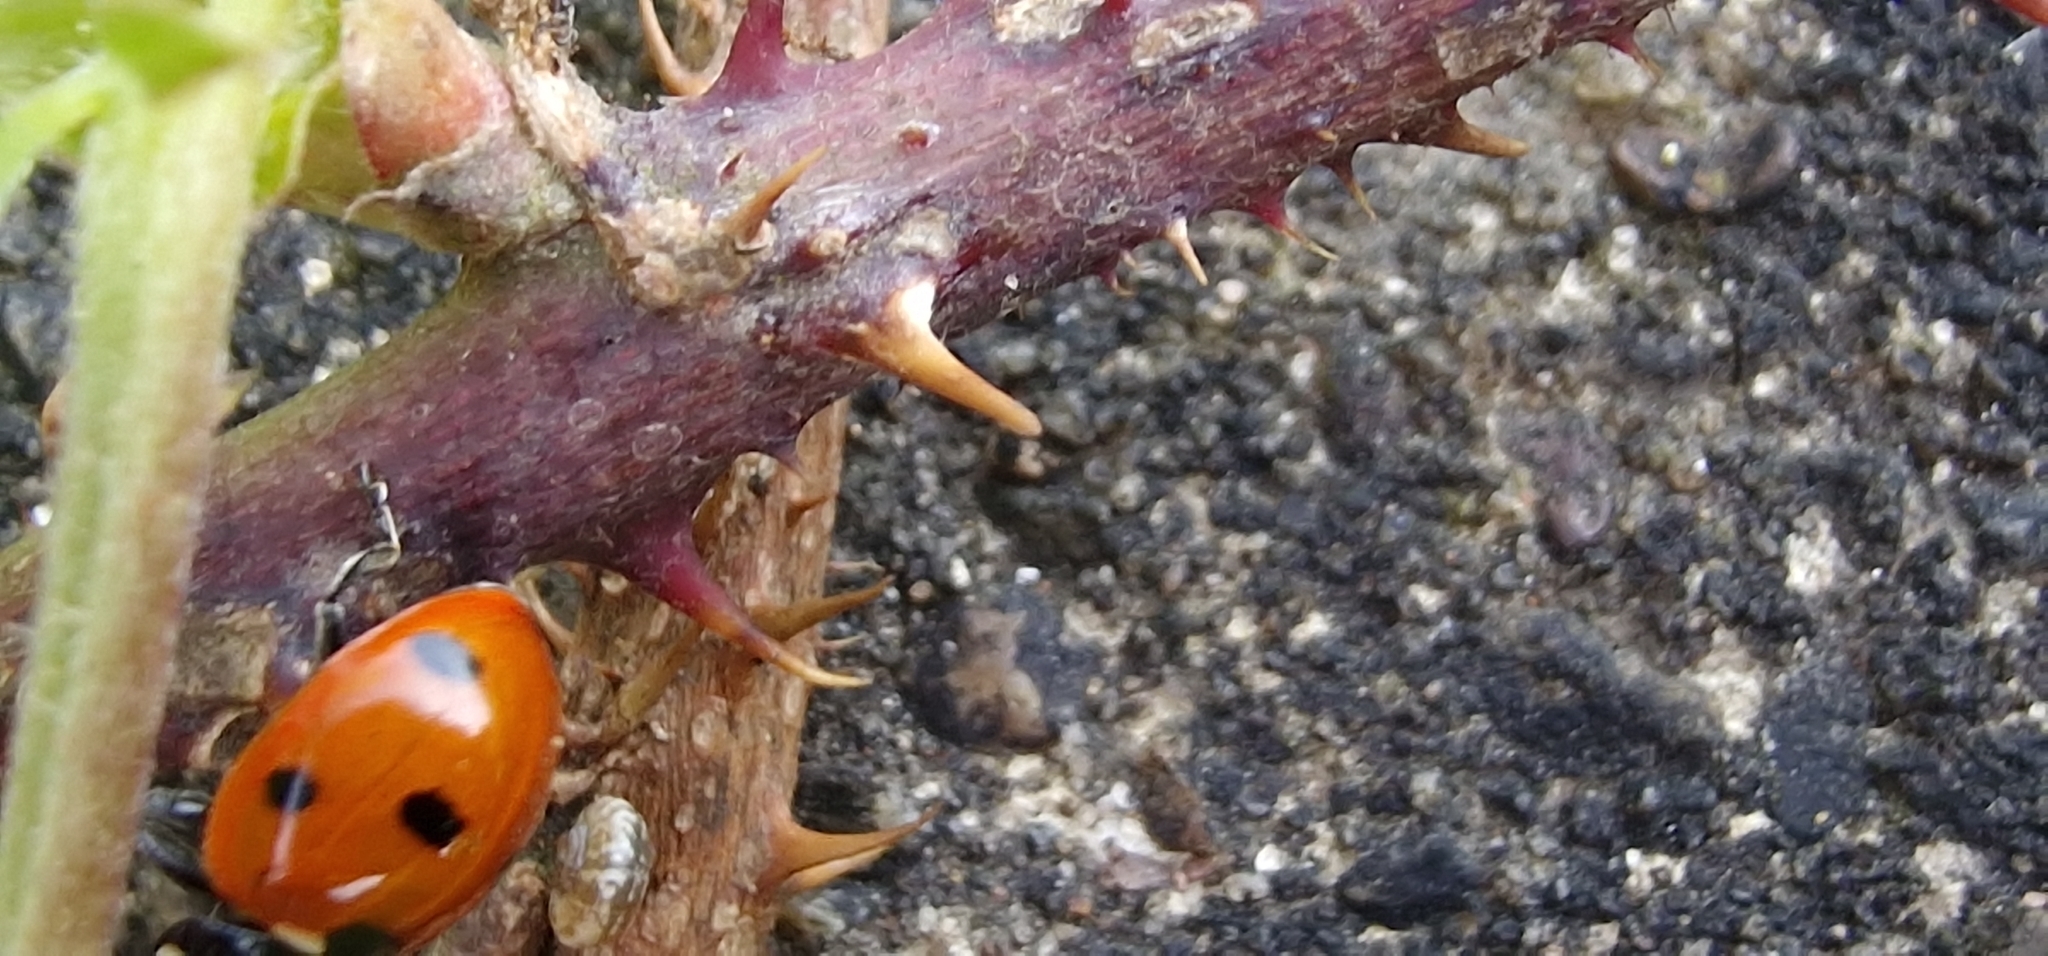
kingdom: Animalia
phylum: Arthropoda
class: Insecta
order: Coleoptera
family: Coccinellidae
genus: Coccinella
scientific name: Coccinella septempunctata
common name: Sevenspotted lady beetle
